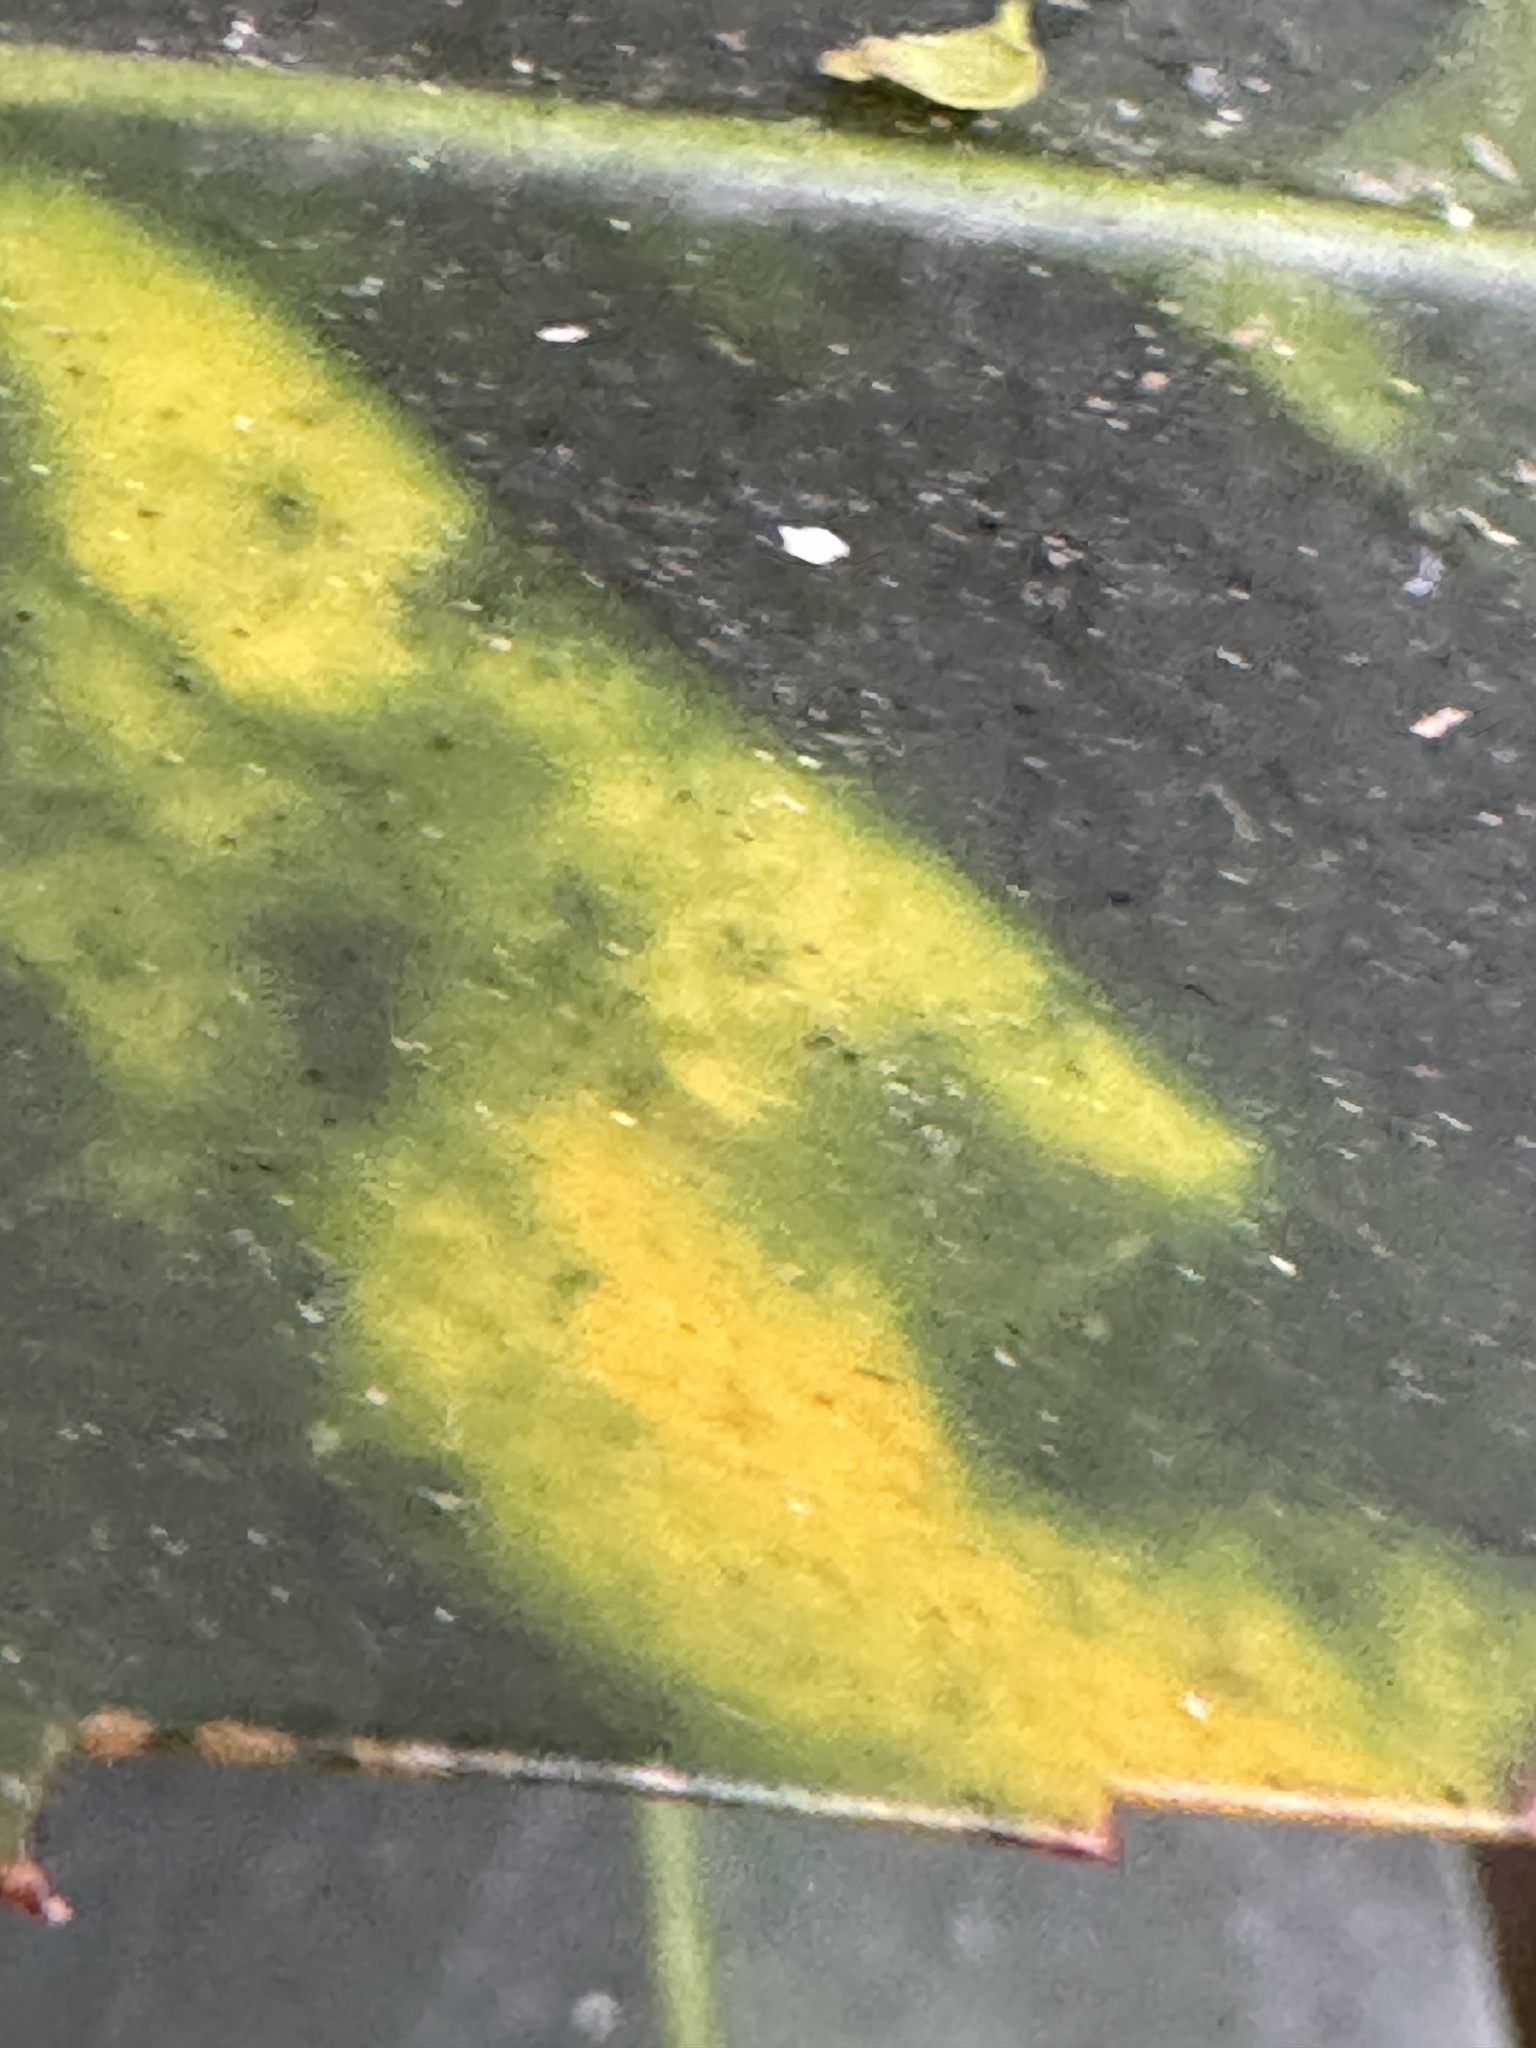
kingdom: Fungi
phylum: Ascomycota
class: Dothideomycetes
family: Vizellaceae
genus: Vizella
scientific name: Vizella tunicata
